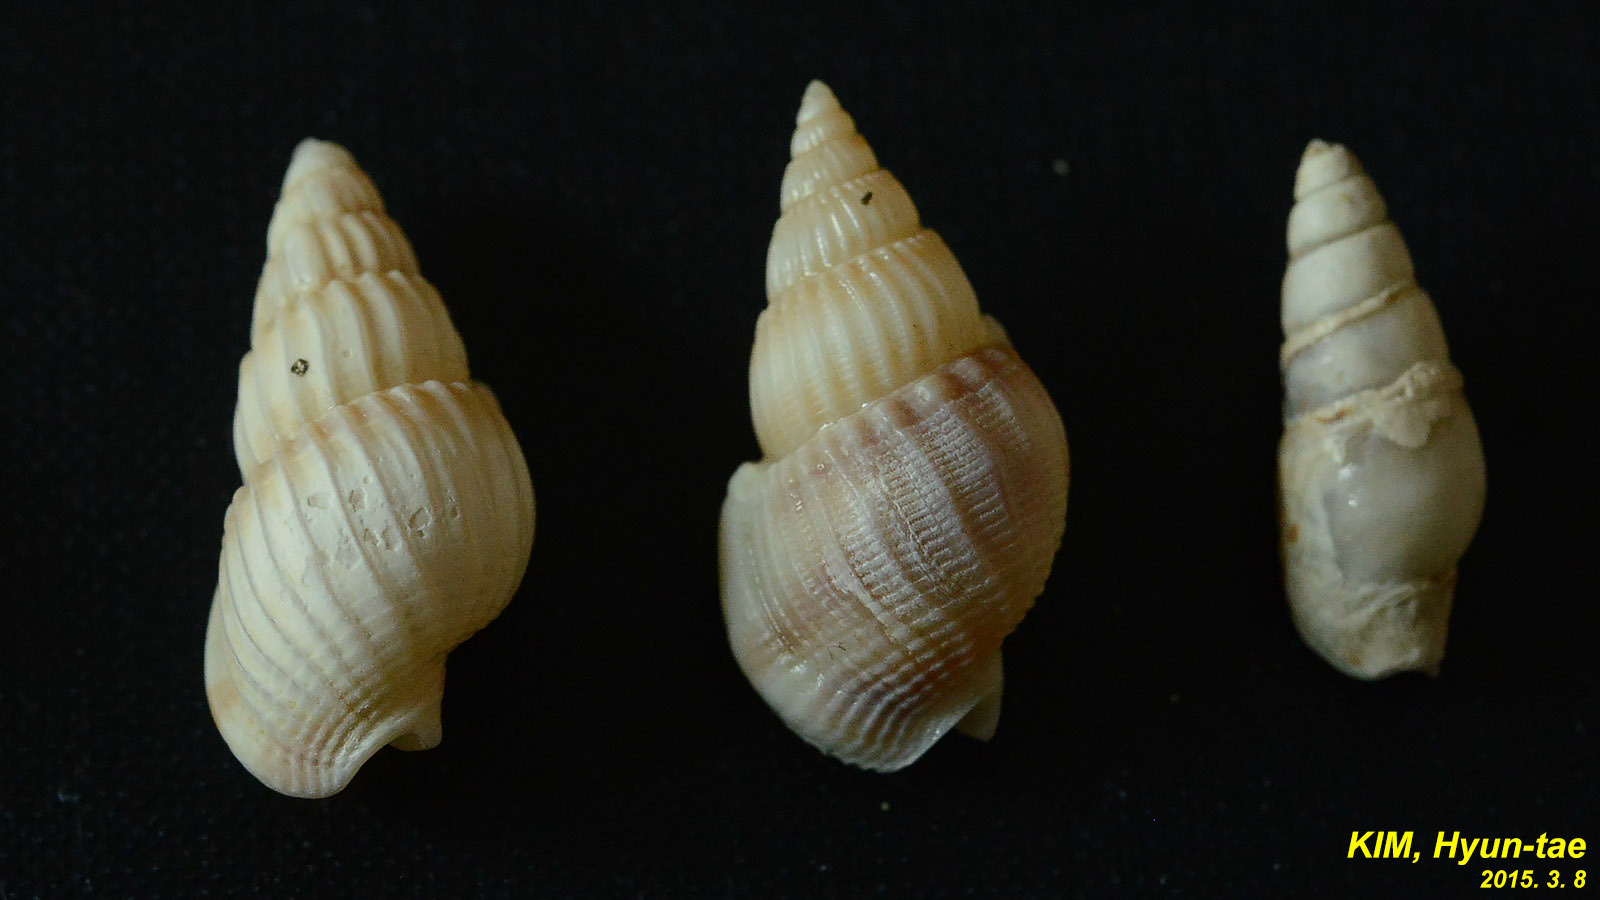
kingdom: Animalia
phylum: Mollusca
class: Gastropoda
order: Neogastropoda
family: Nassariidae
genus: Nassarius
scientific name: Nassarius variciferus
